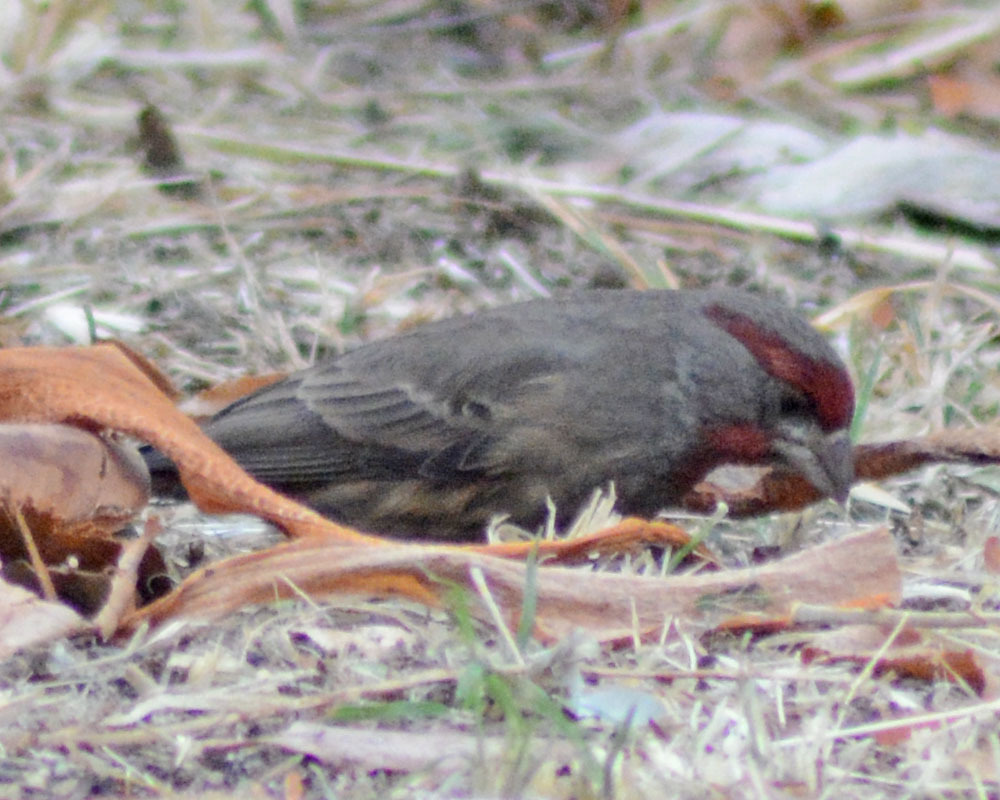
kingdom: Animalia
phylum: Chordata
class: Aves
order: Passeriformes
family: Fringillidae
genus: Haemorhous
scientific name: Haemorhous mexicanus
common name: House finch
